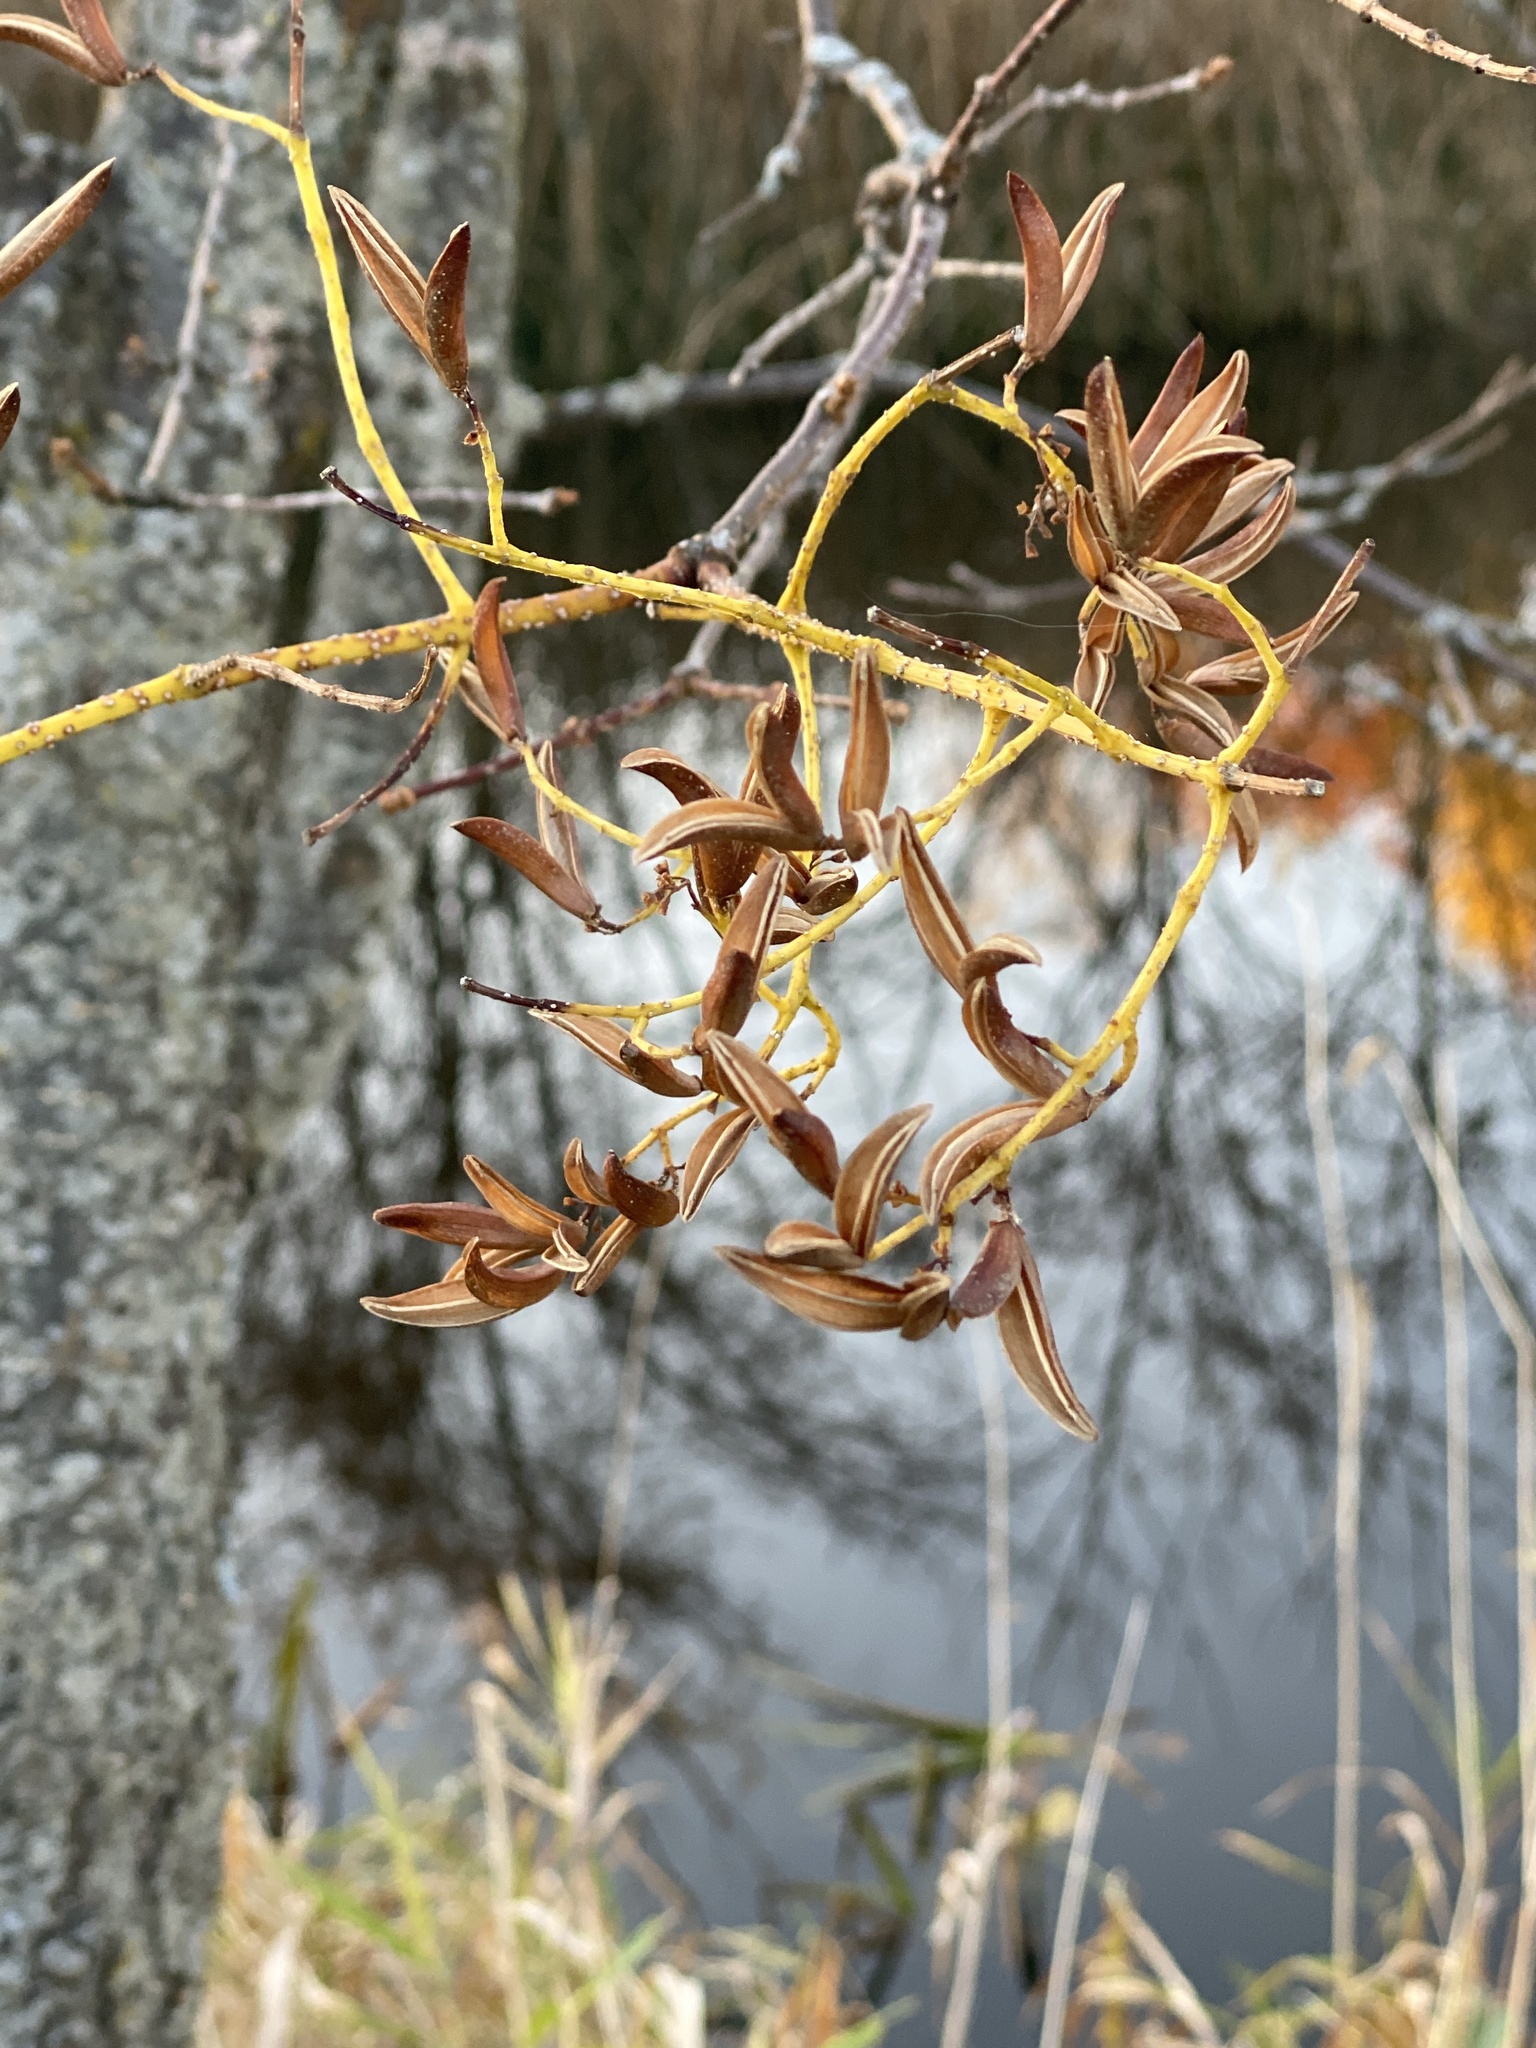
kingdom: Plantae
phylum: Tracheophyta
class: Magnoliopsida
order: Lamiales
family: Oleaceae
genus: Syringa
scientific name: Syringa reticulata
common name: Japanese tree lilac
